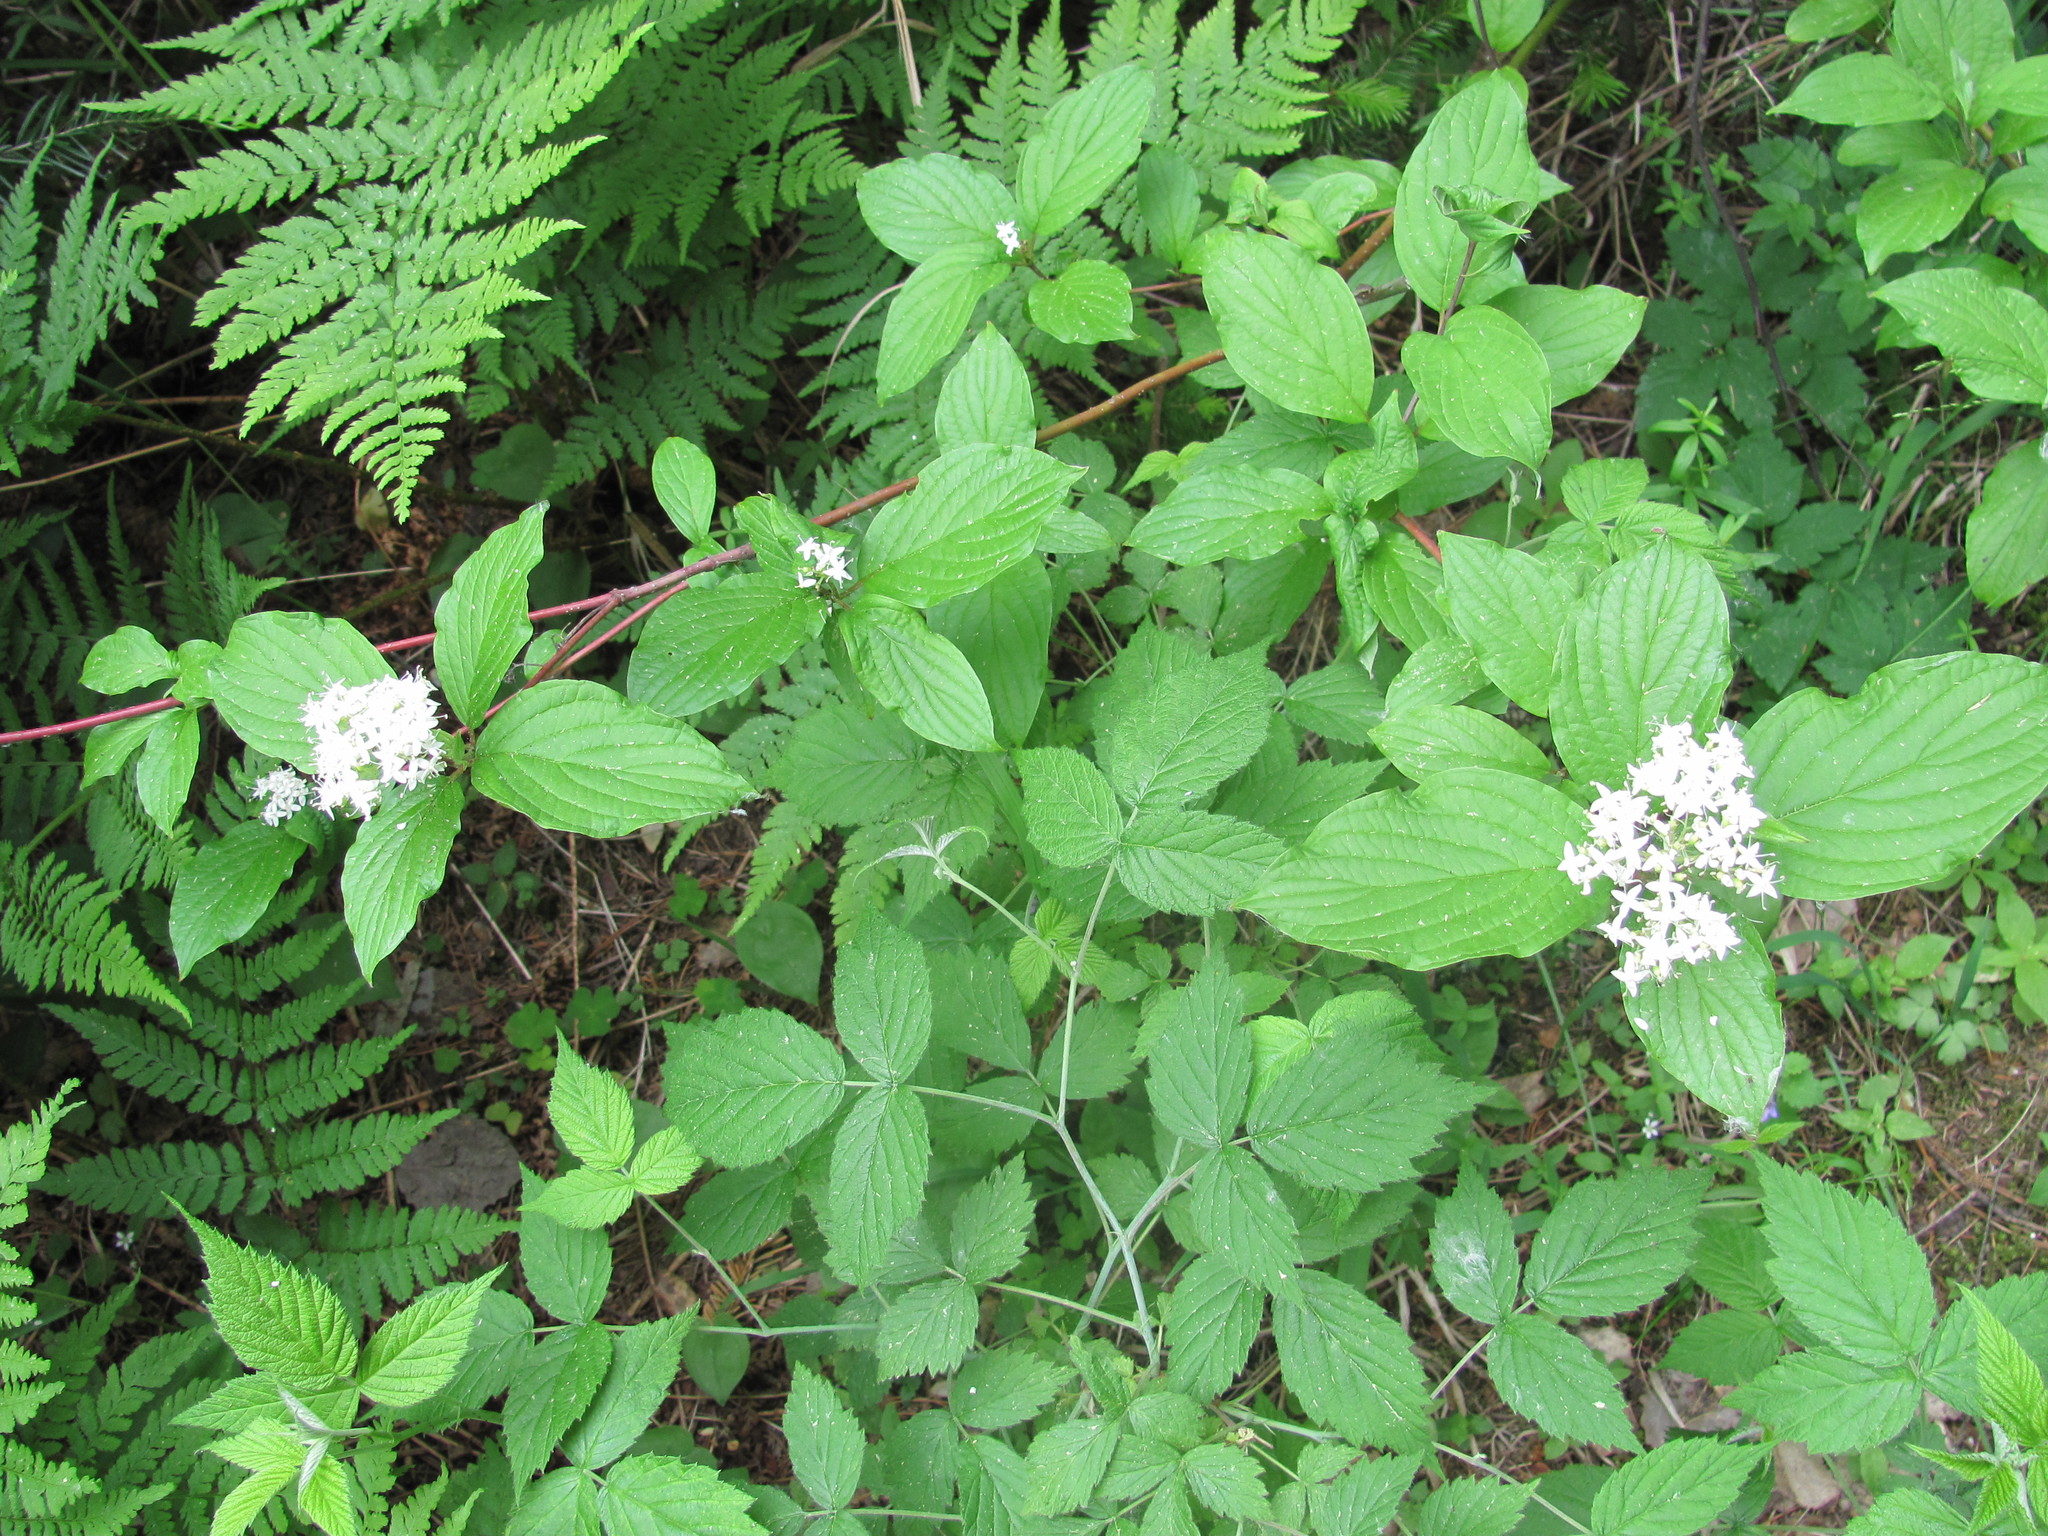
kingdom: Plantae
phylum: Tracheophyta
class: Magnoliopsida
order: Cornales
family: Cornaceae
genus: Cornus
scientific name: Cornus alba
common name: White dogwood
